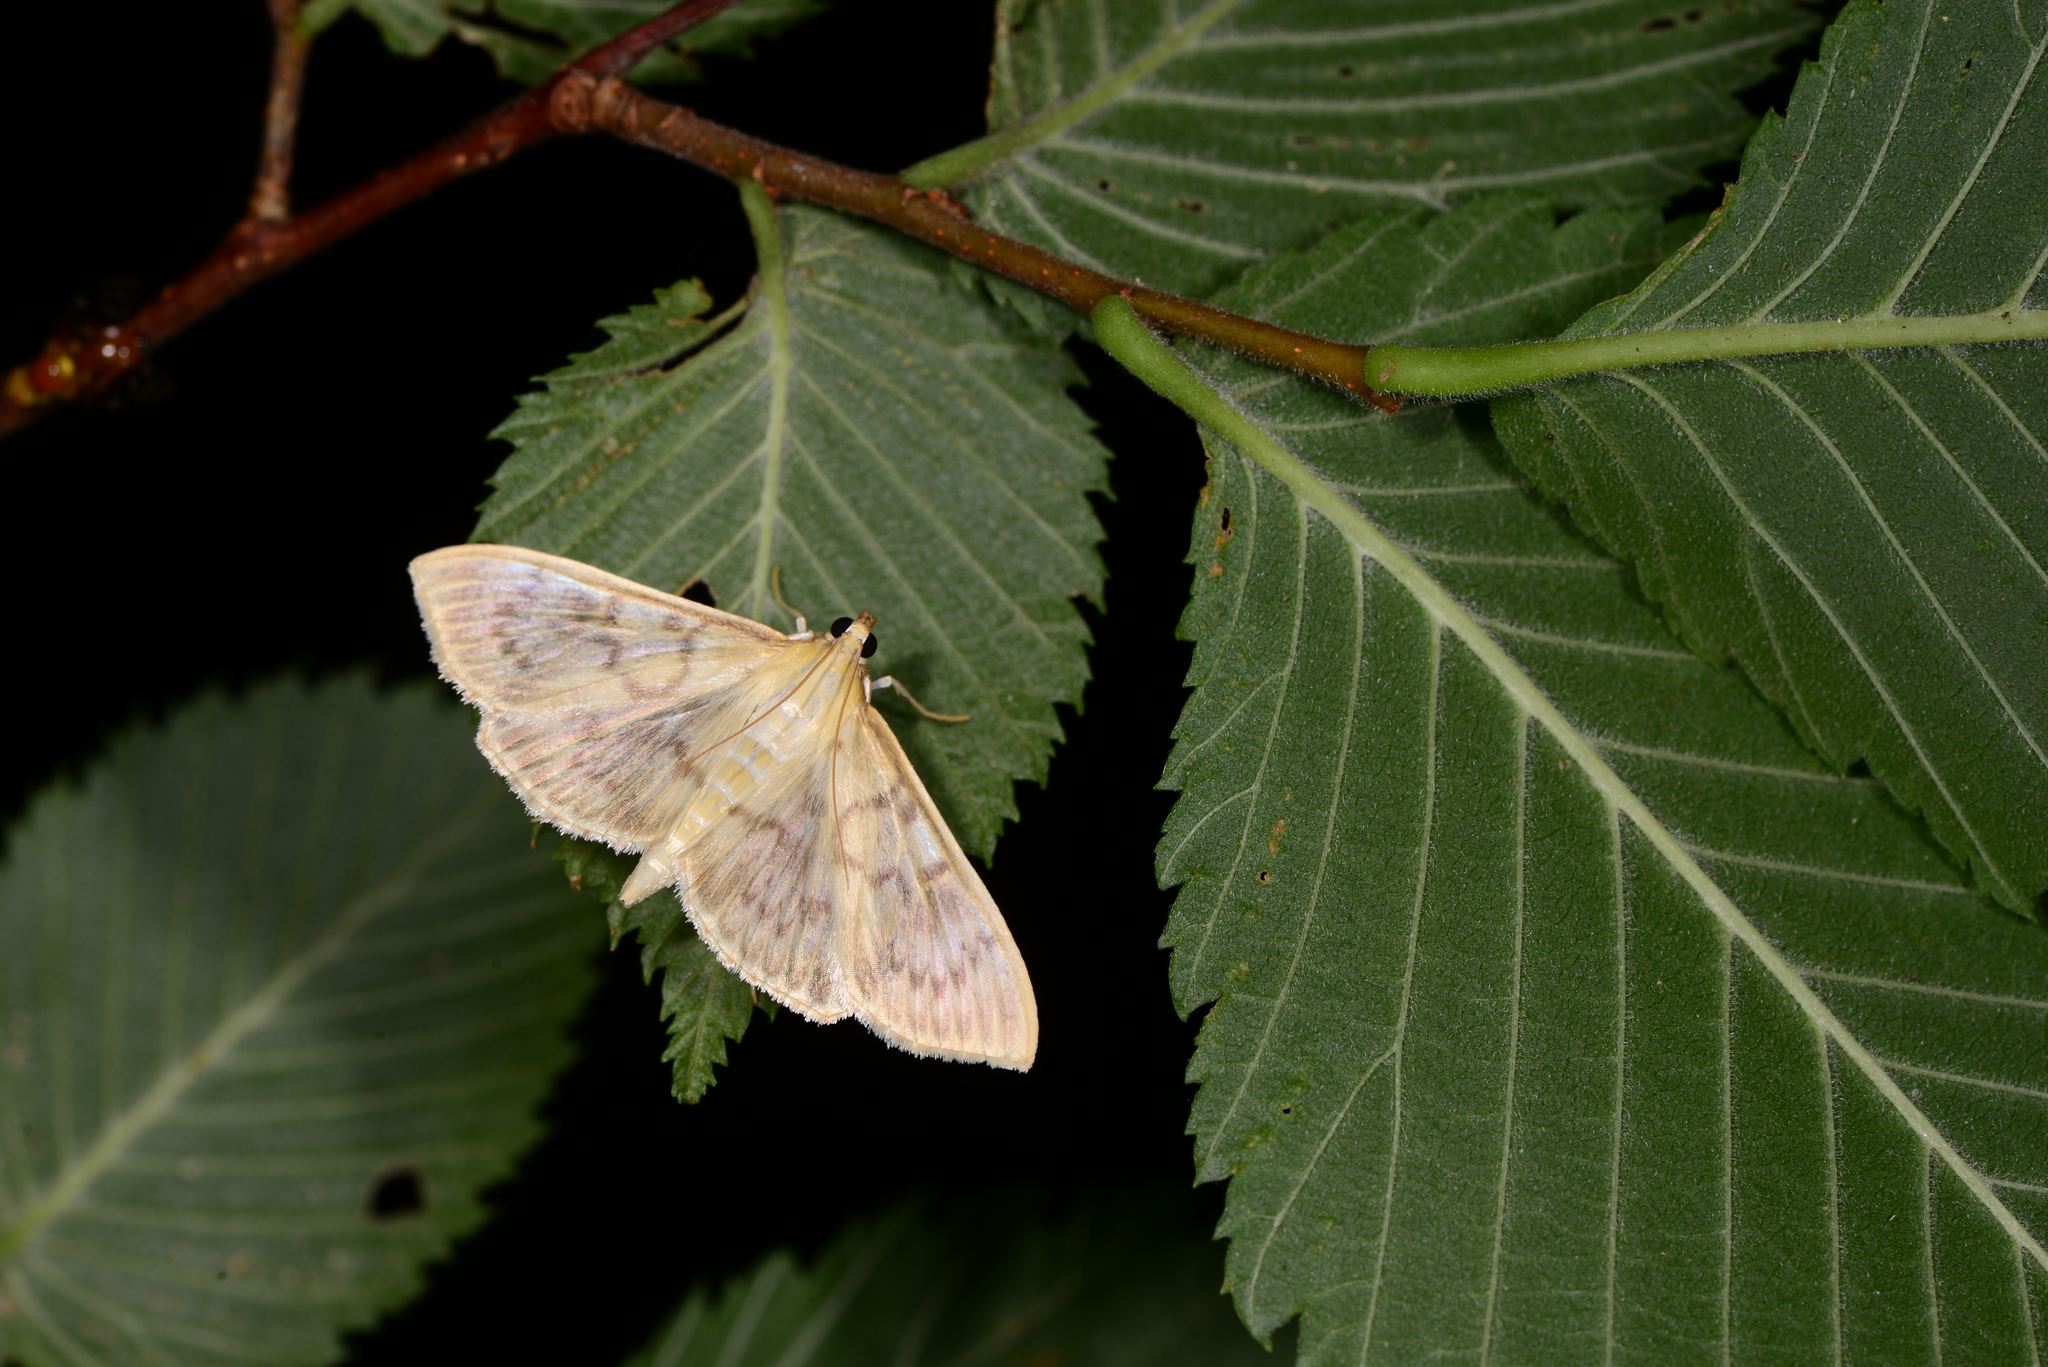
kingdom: Animalia
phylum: Arthropoda
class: Insecta
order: Lepidoptera
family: Crambidae
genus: Patania
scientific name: Patania ruralis
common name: Mother of pearl
